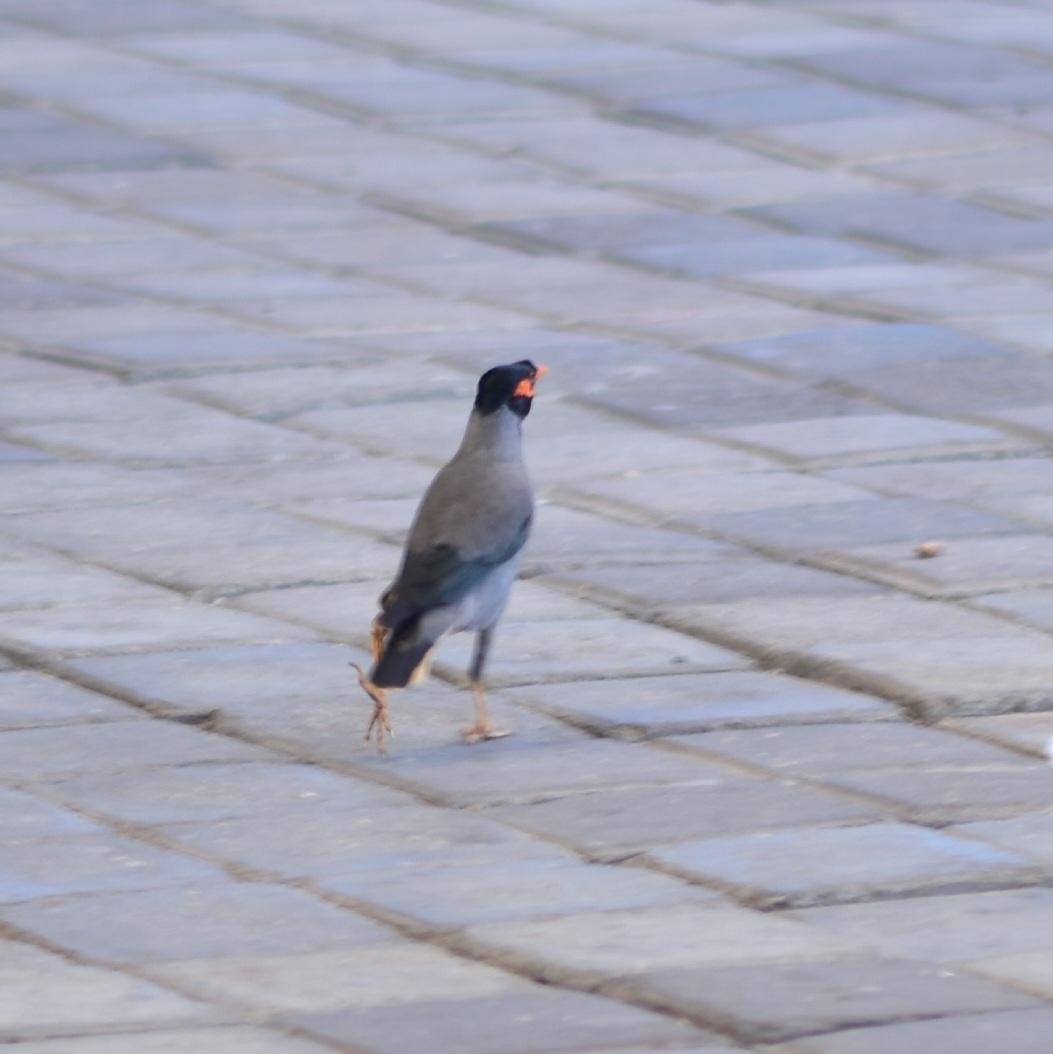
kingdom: Animalia
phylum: Chordata
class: Aves
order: Passeriformes
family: Sturnidae
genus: Acridotheres
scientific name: Acridotheres ginginianus
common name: Bank myna
